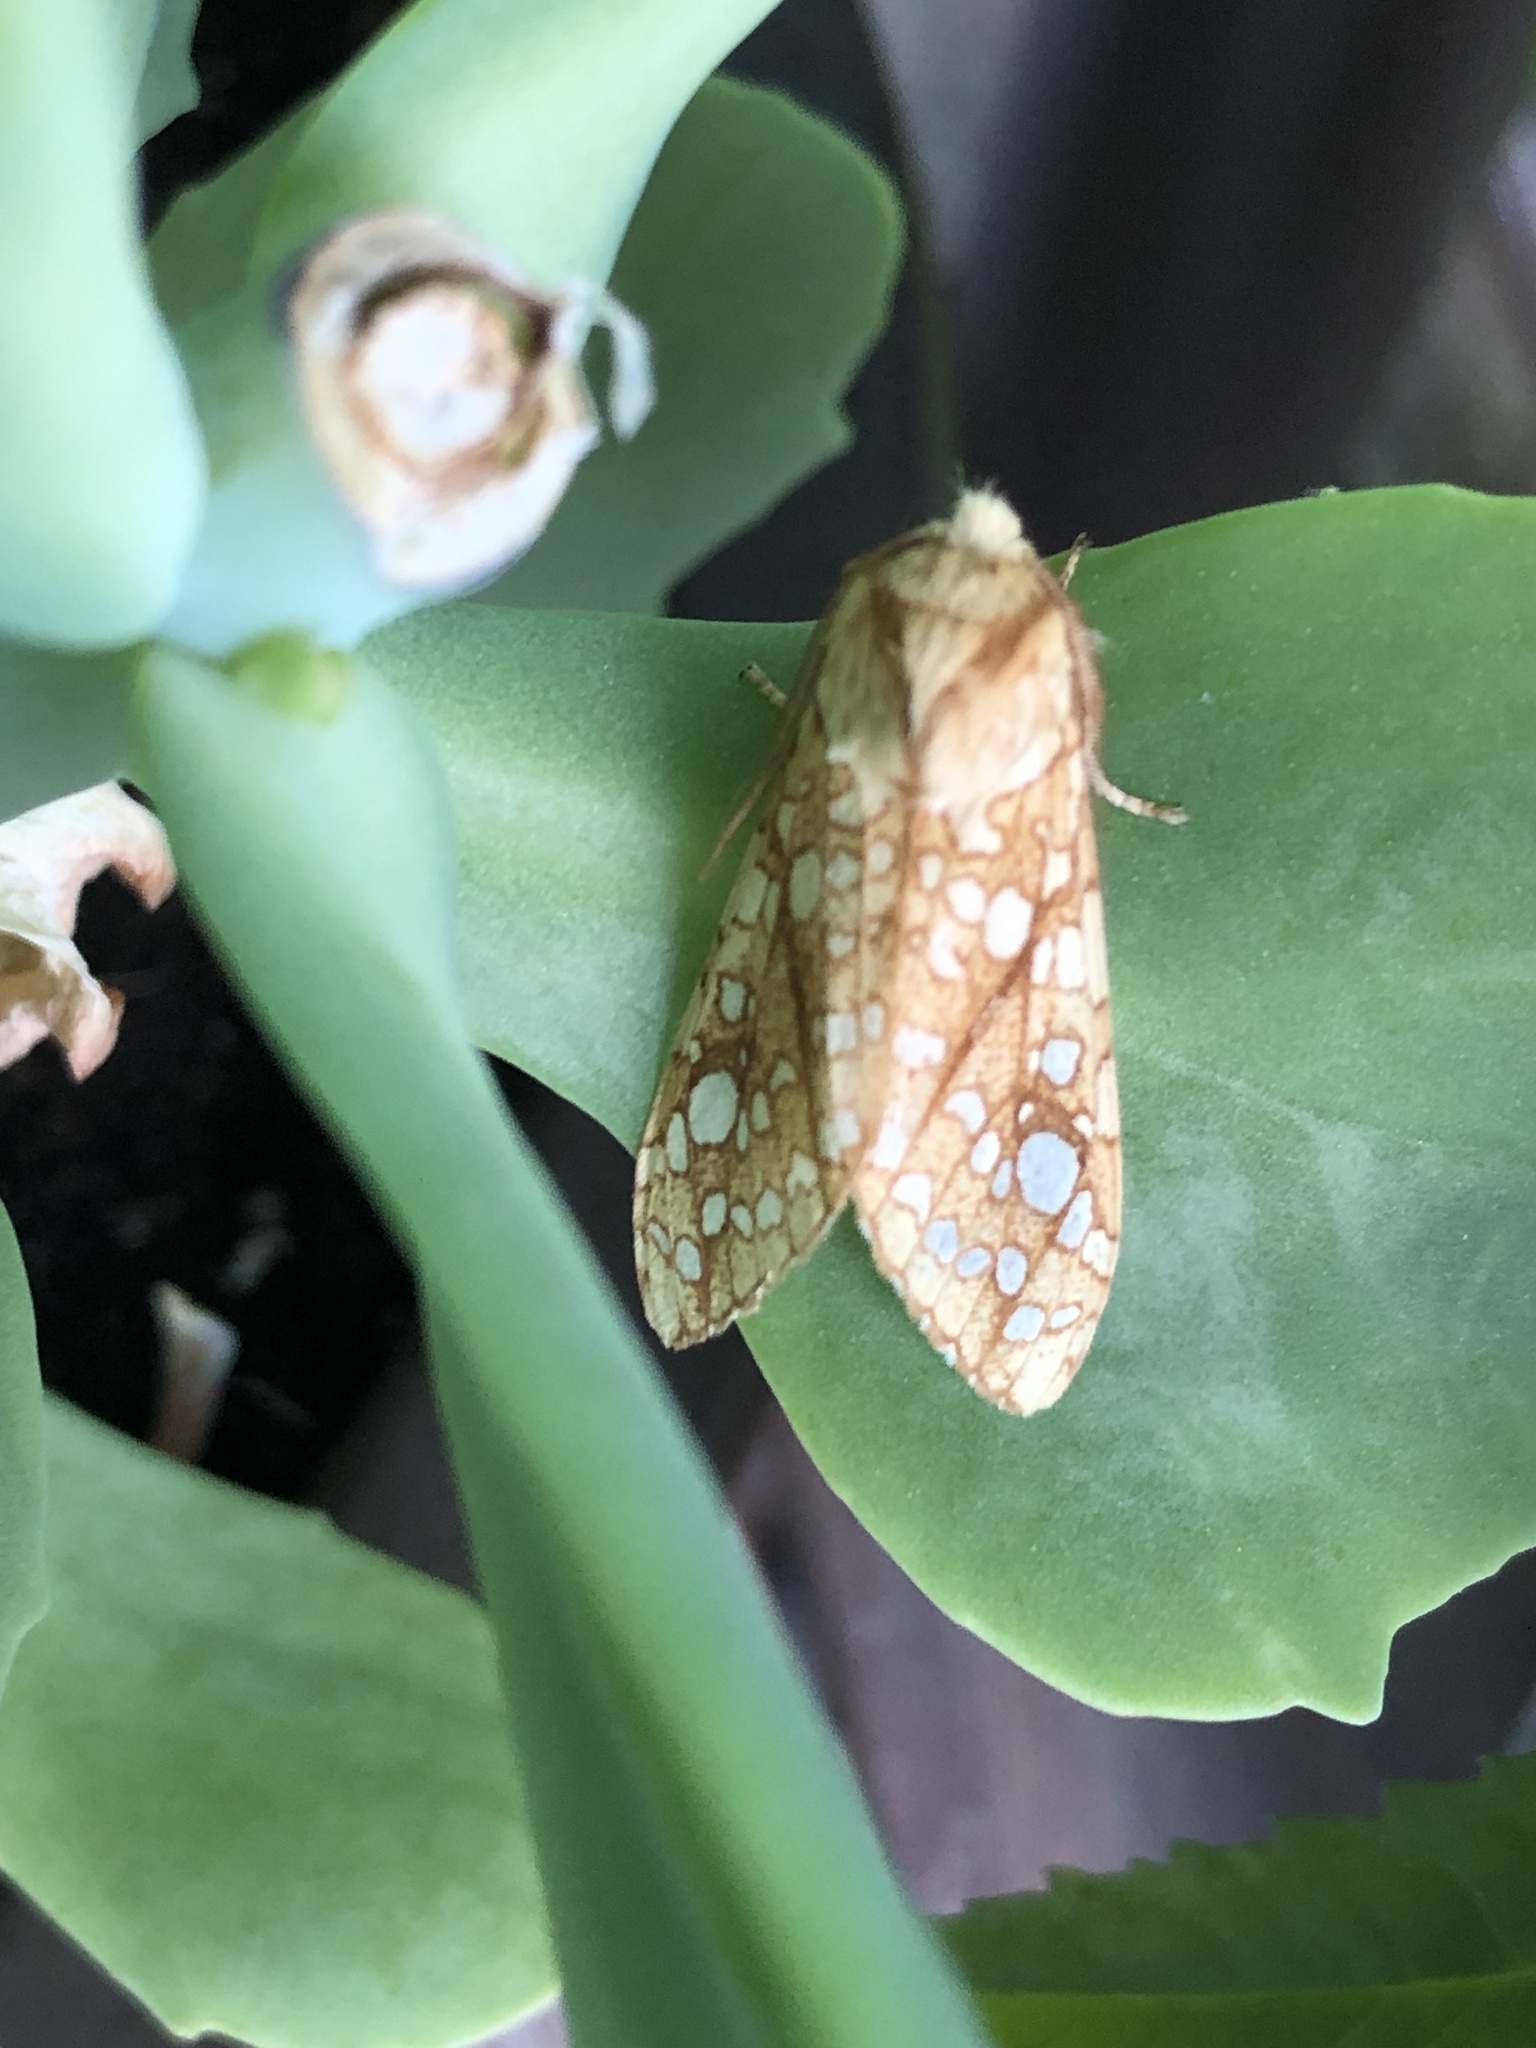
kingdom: Animalia
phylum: Arthropoda
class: Insecta
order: Lepidoptera
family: Erebidae
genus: Lophocampa
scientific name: Lophocampa caryae
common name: Hickory tussock moth
